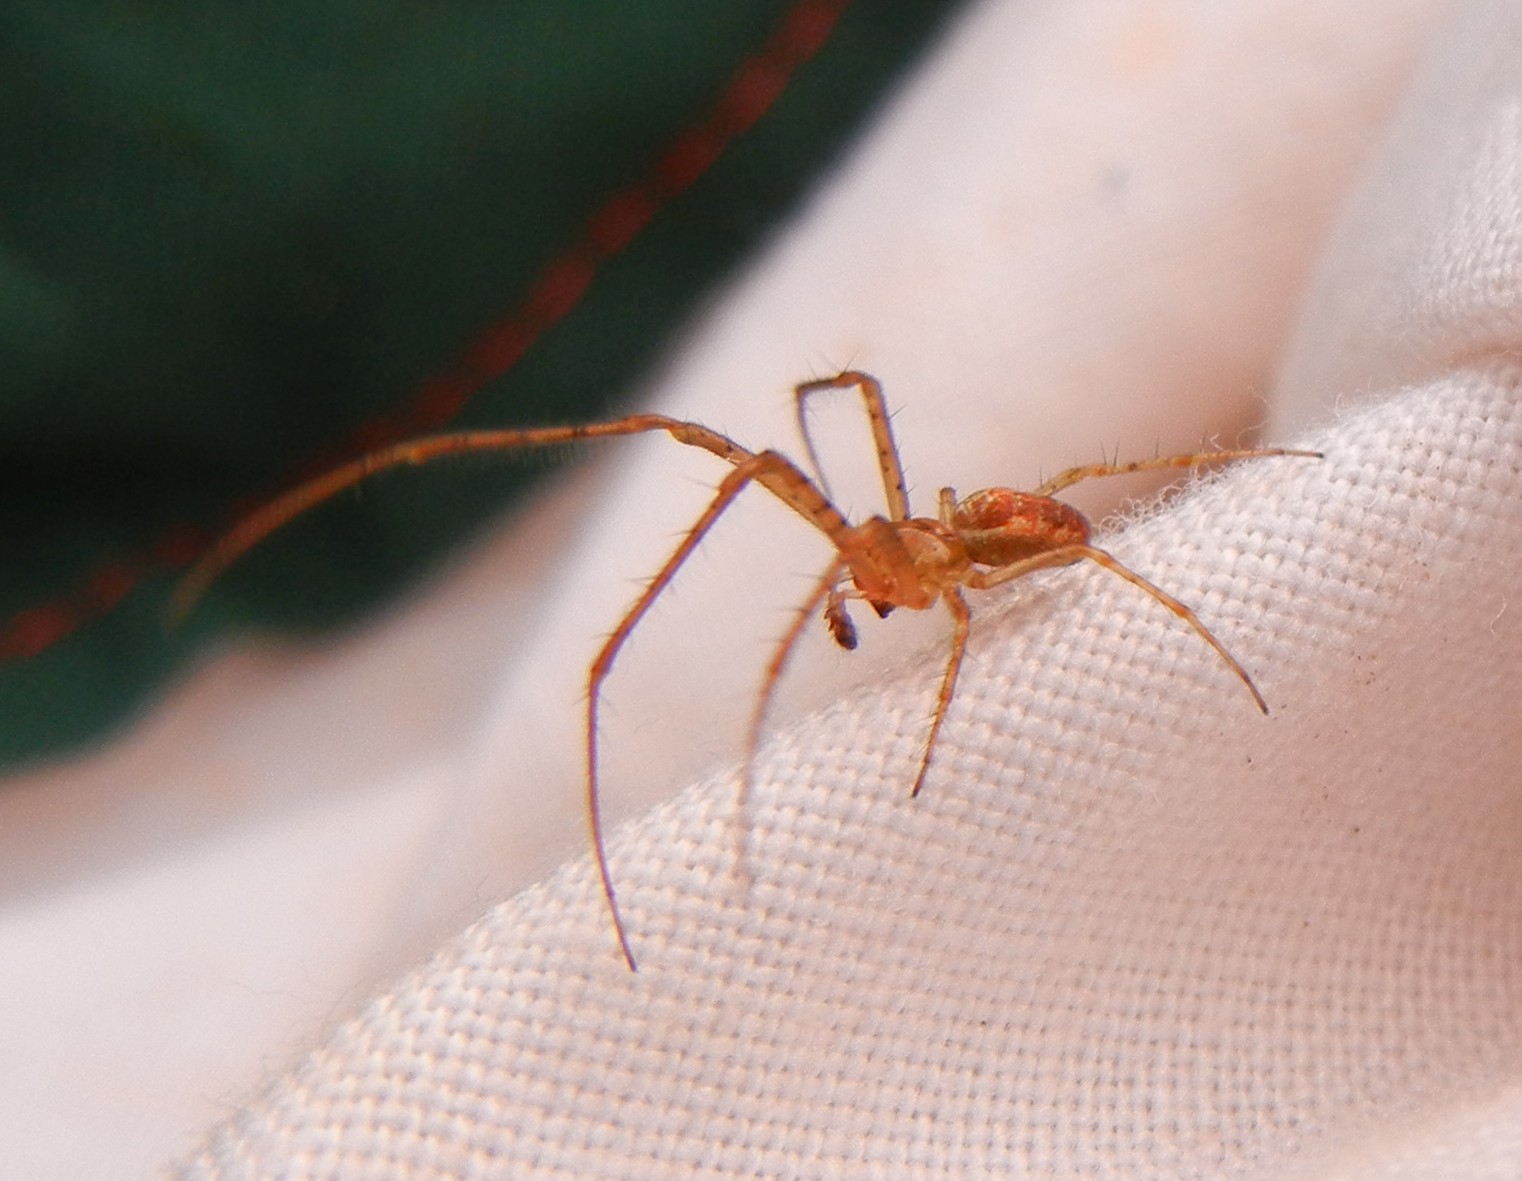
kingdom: Animalia
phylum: Arthropoda
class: Arachnida
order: Araneae
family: Tetragnathidae
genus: Metellina
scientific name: Metellina mengei
